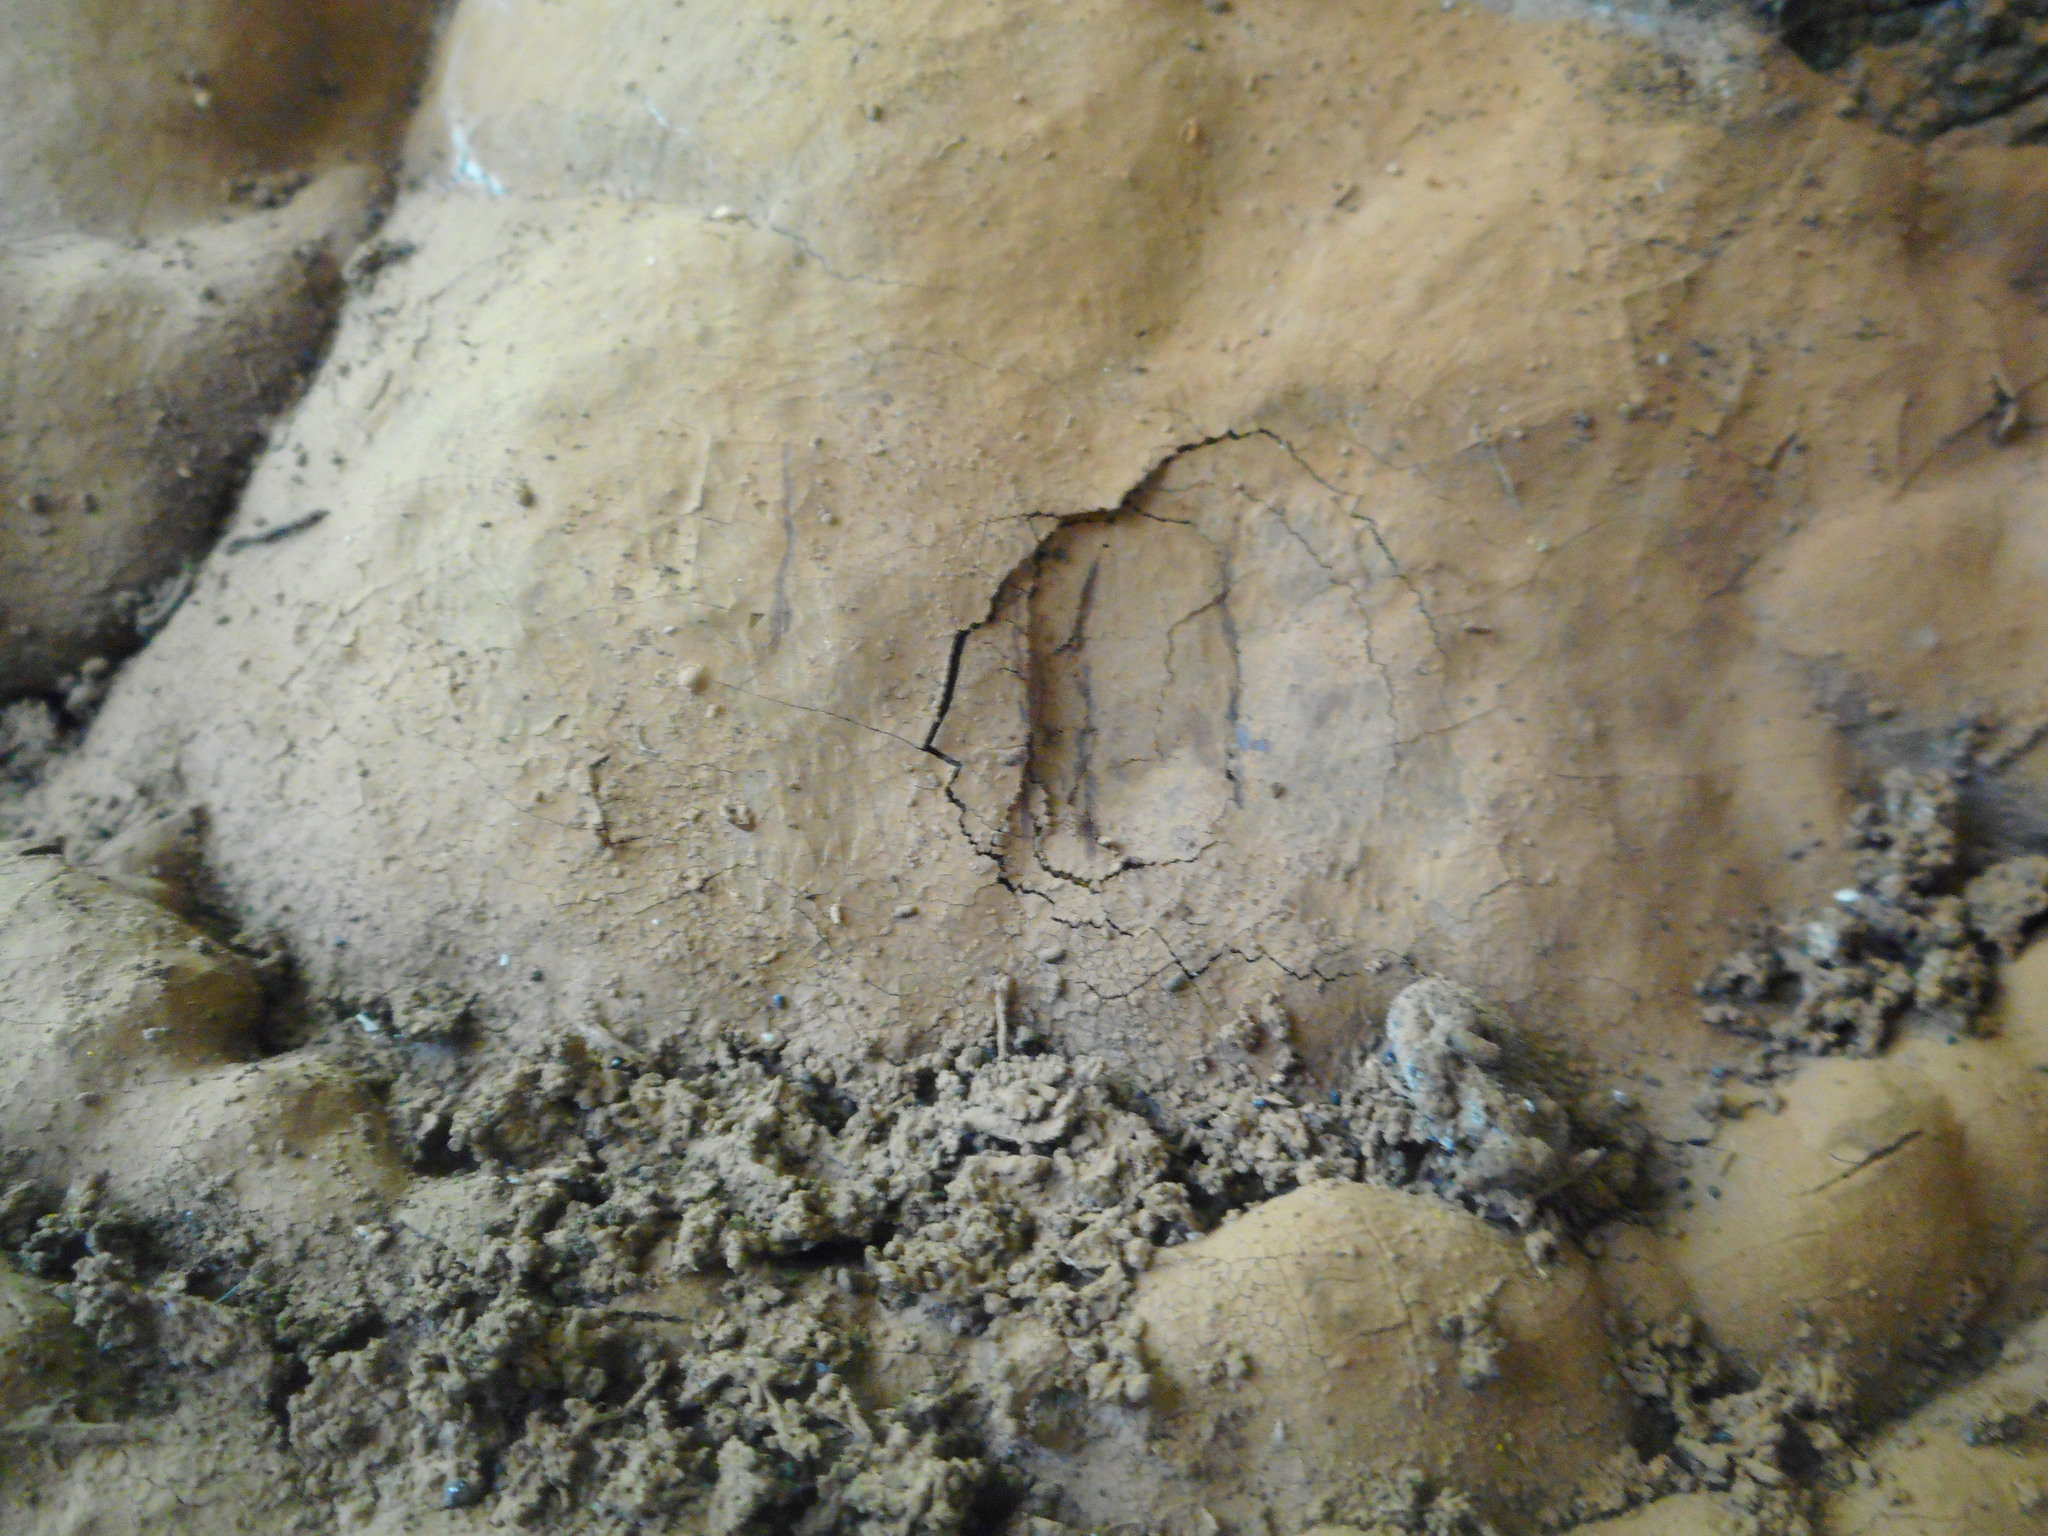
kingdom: Fungi
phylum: Basidiomycota
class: Agaricomycetes
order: Polyporales
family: Polyporaceae
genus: Ganoderma
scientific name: Ganoderma applanatum
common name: Artist's bracket
